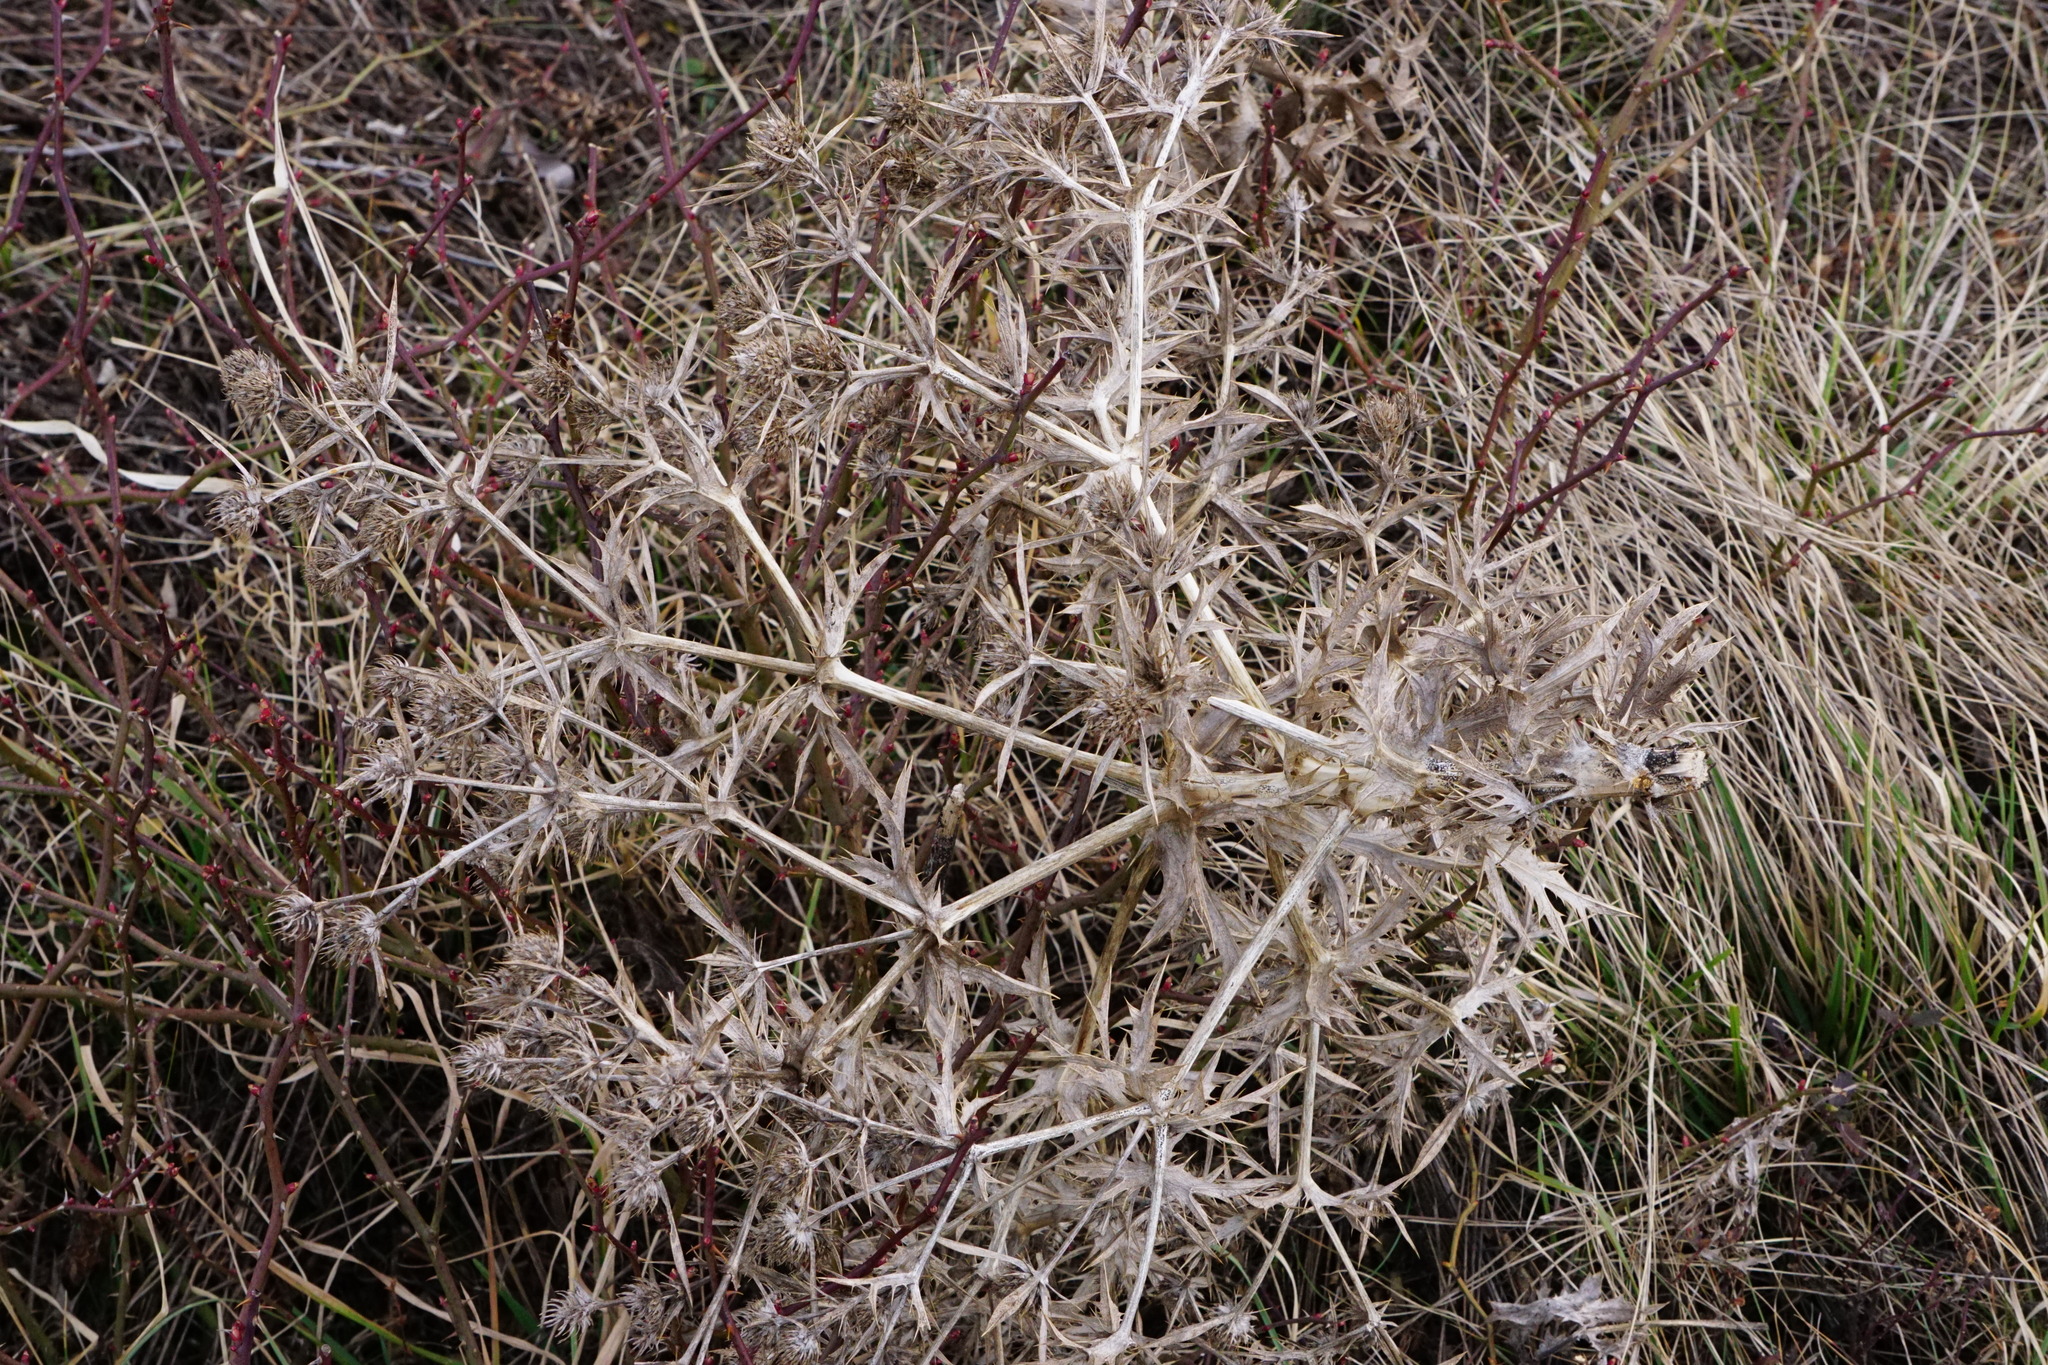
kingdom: Plantae
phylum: Tracheophyta
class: Magnoliopsida
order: Apiales
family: Apiaceae
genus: Eryngium
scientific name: Eryngium campestre
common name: Field eryngo
